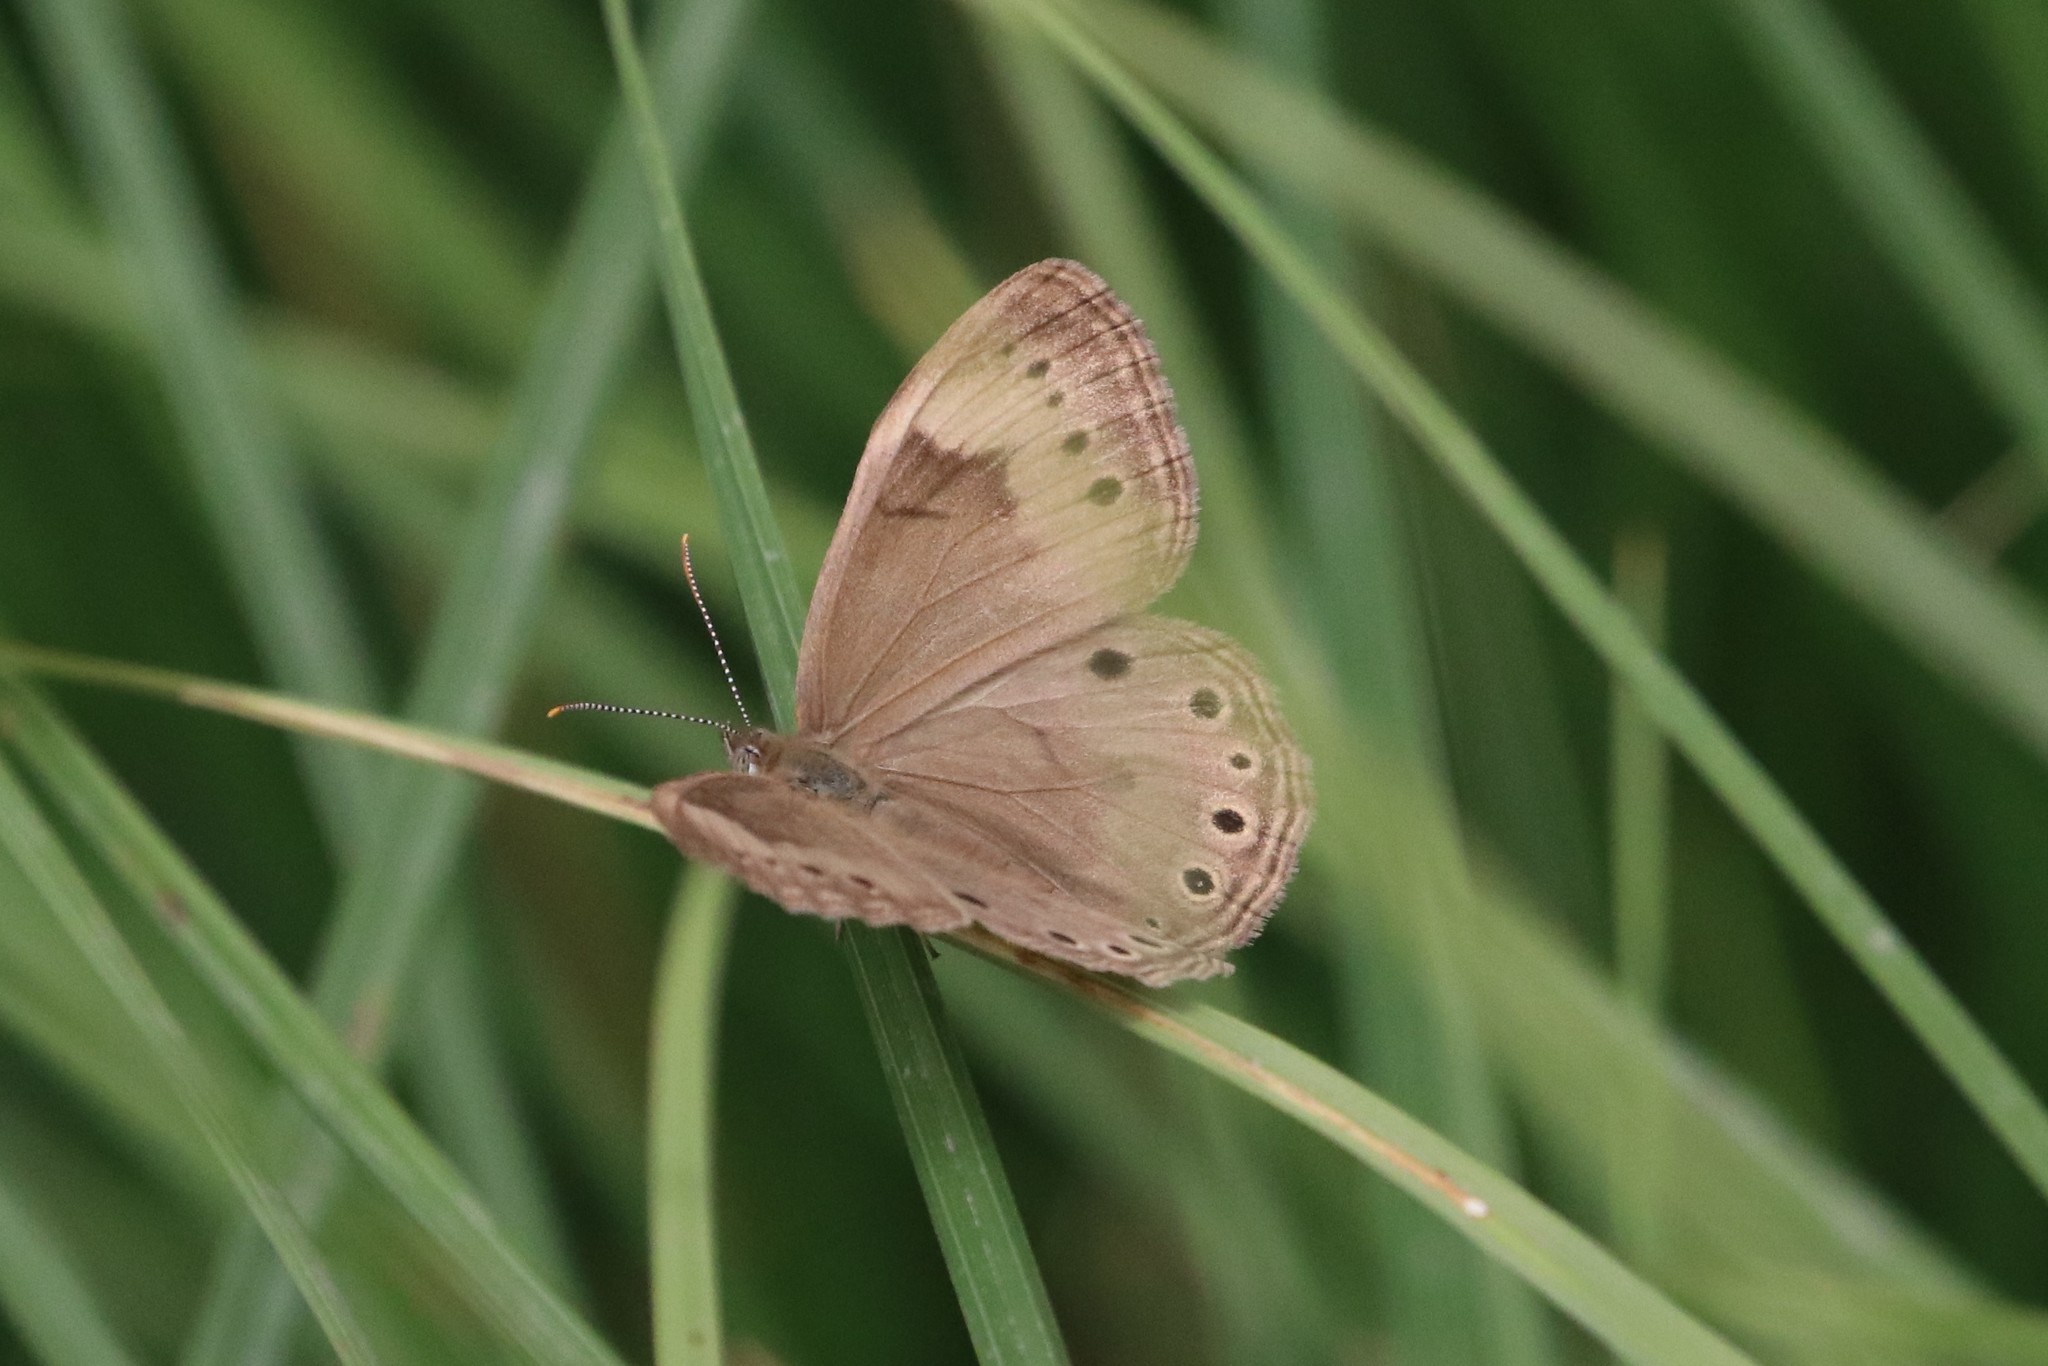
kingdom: Animalia
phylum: Arthropoda
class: Insecta
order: Lepidoptera
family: Nymphalidae
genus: Lethe
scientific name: Lethe eurydice
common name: Eyed brown
